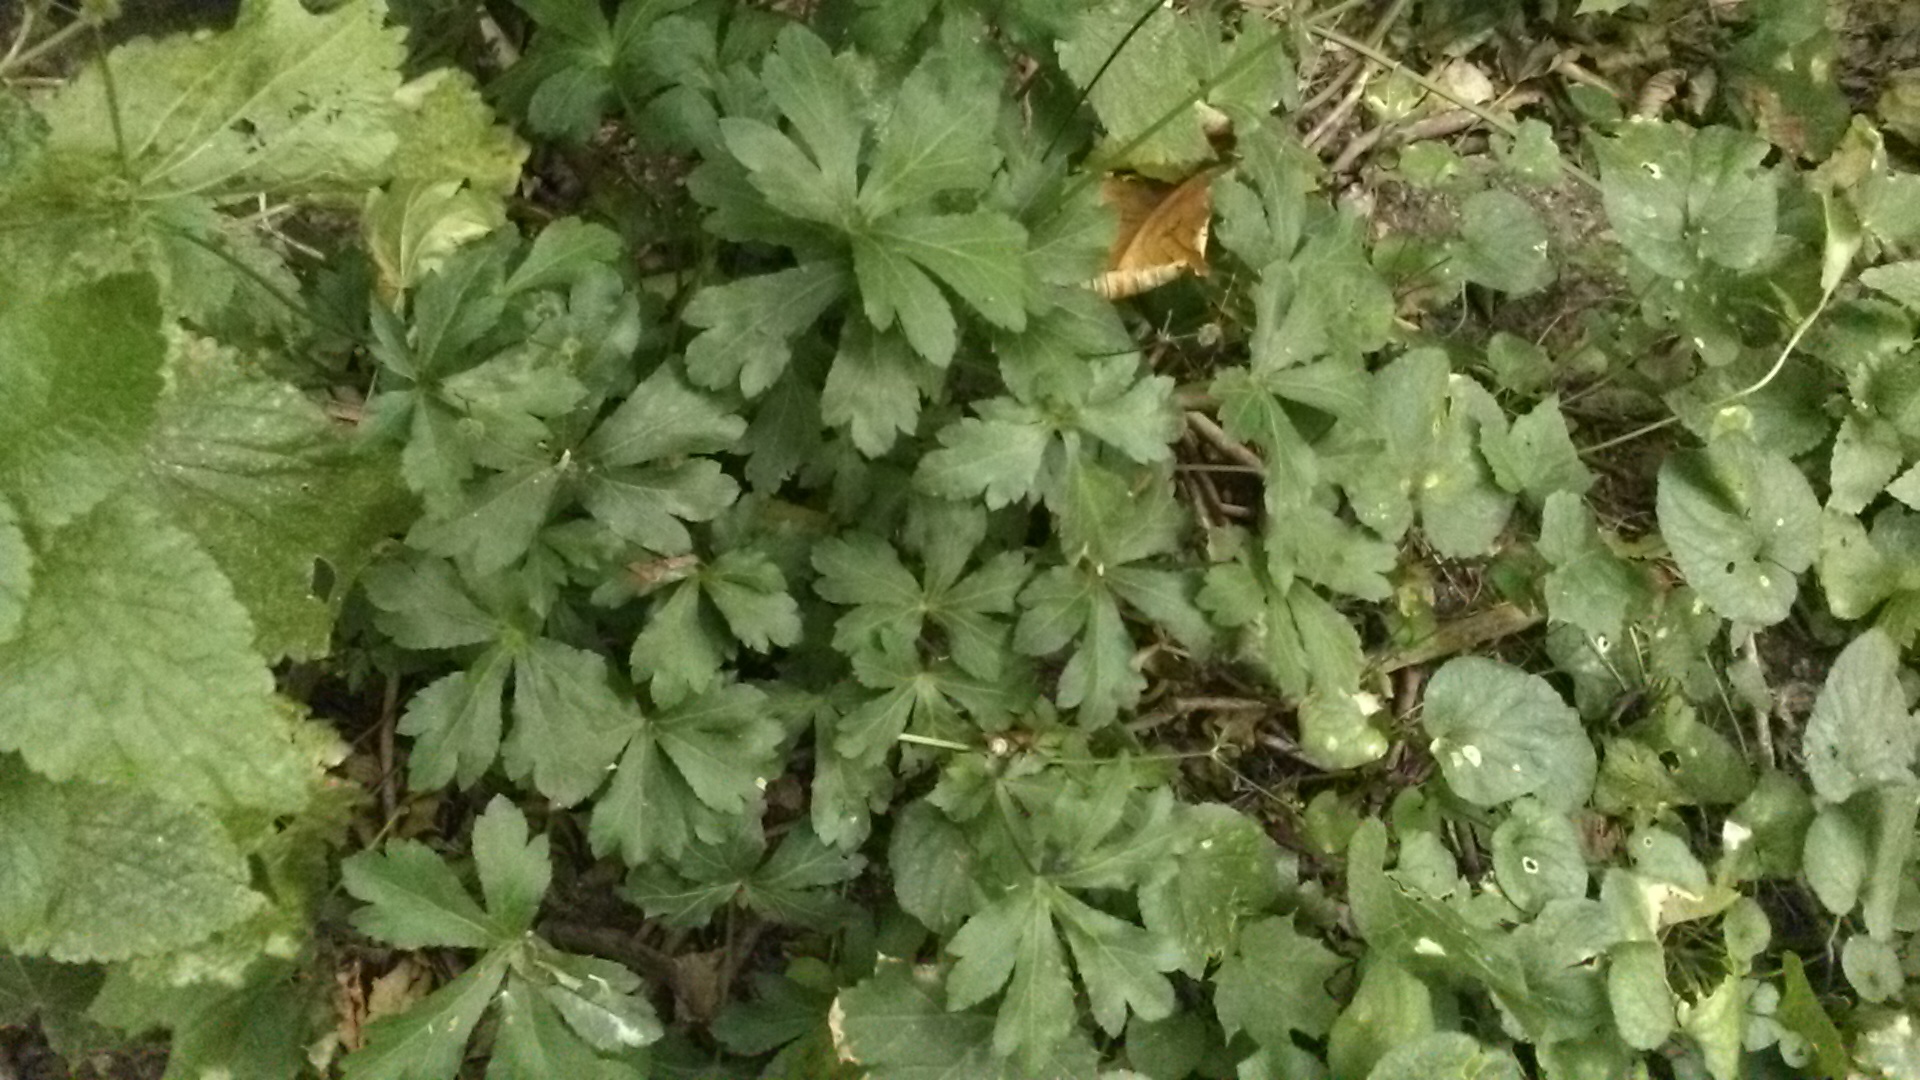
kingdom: Plantae
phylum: Tracheophyta
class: Magnoliopsida
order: Apiales
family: Apiaceae
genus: Sanicula
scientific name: Sanicula europaea
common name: Sanicle
